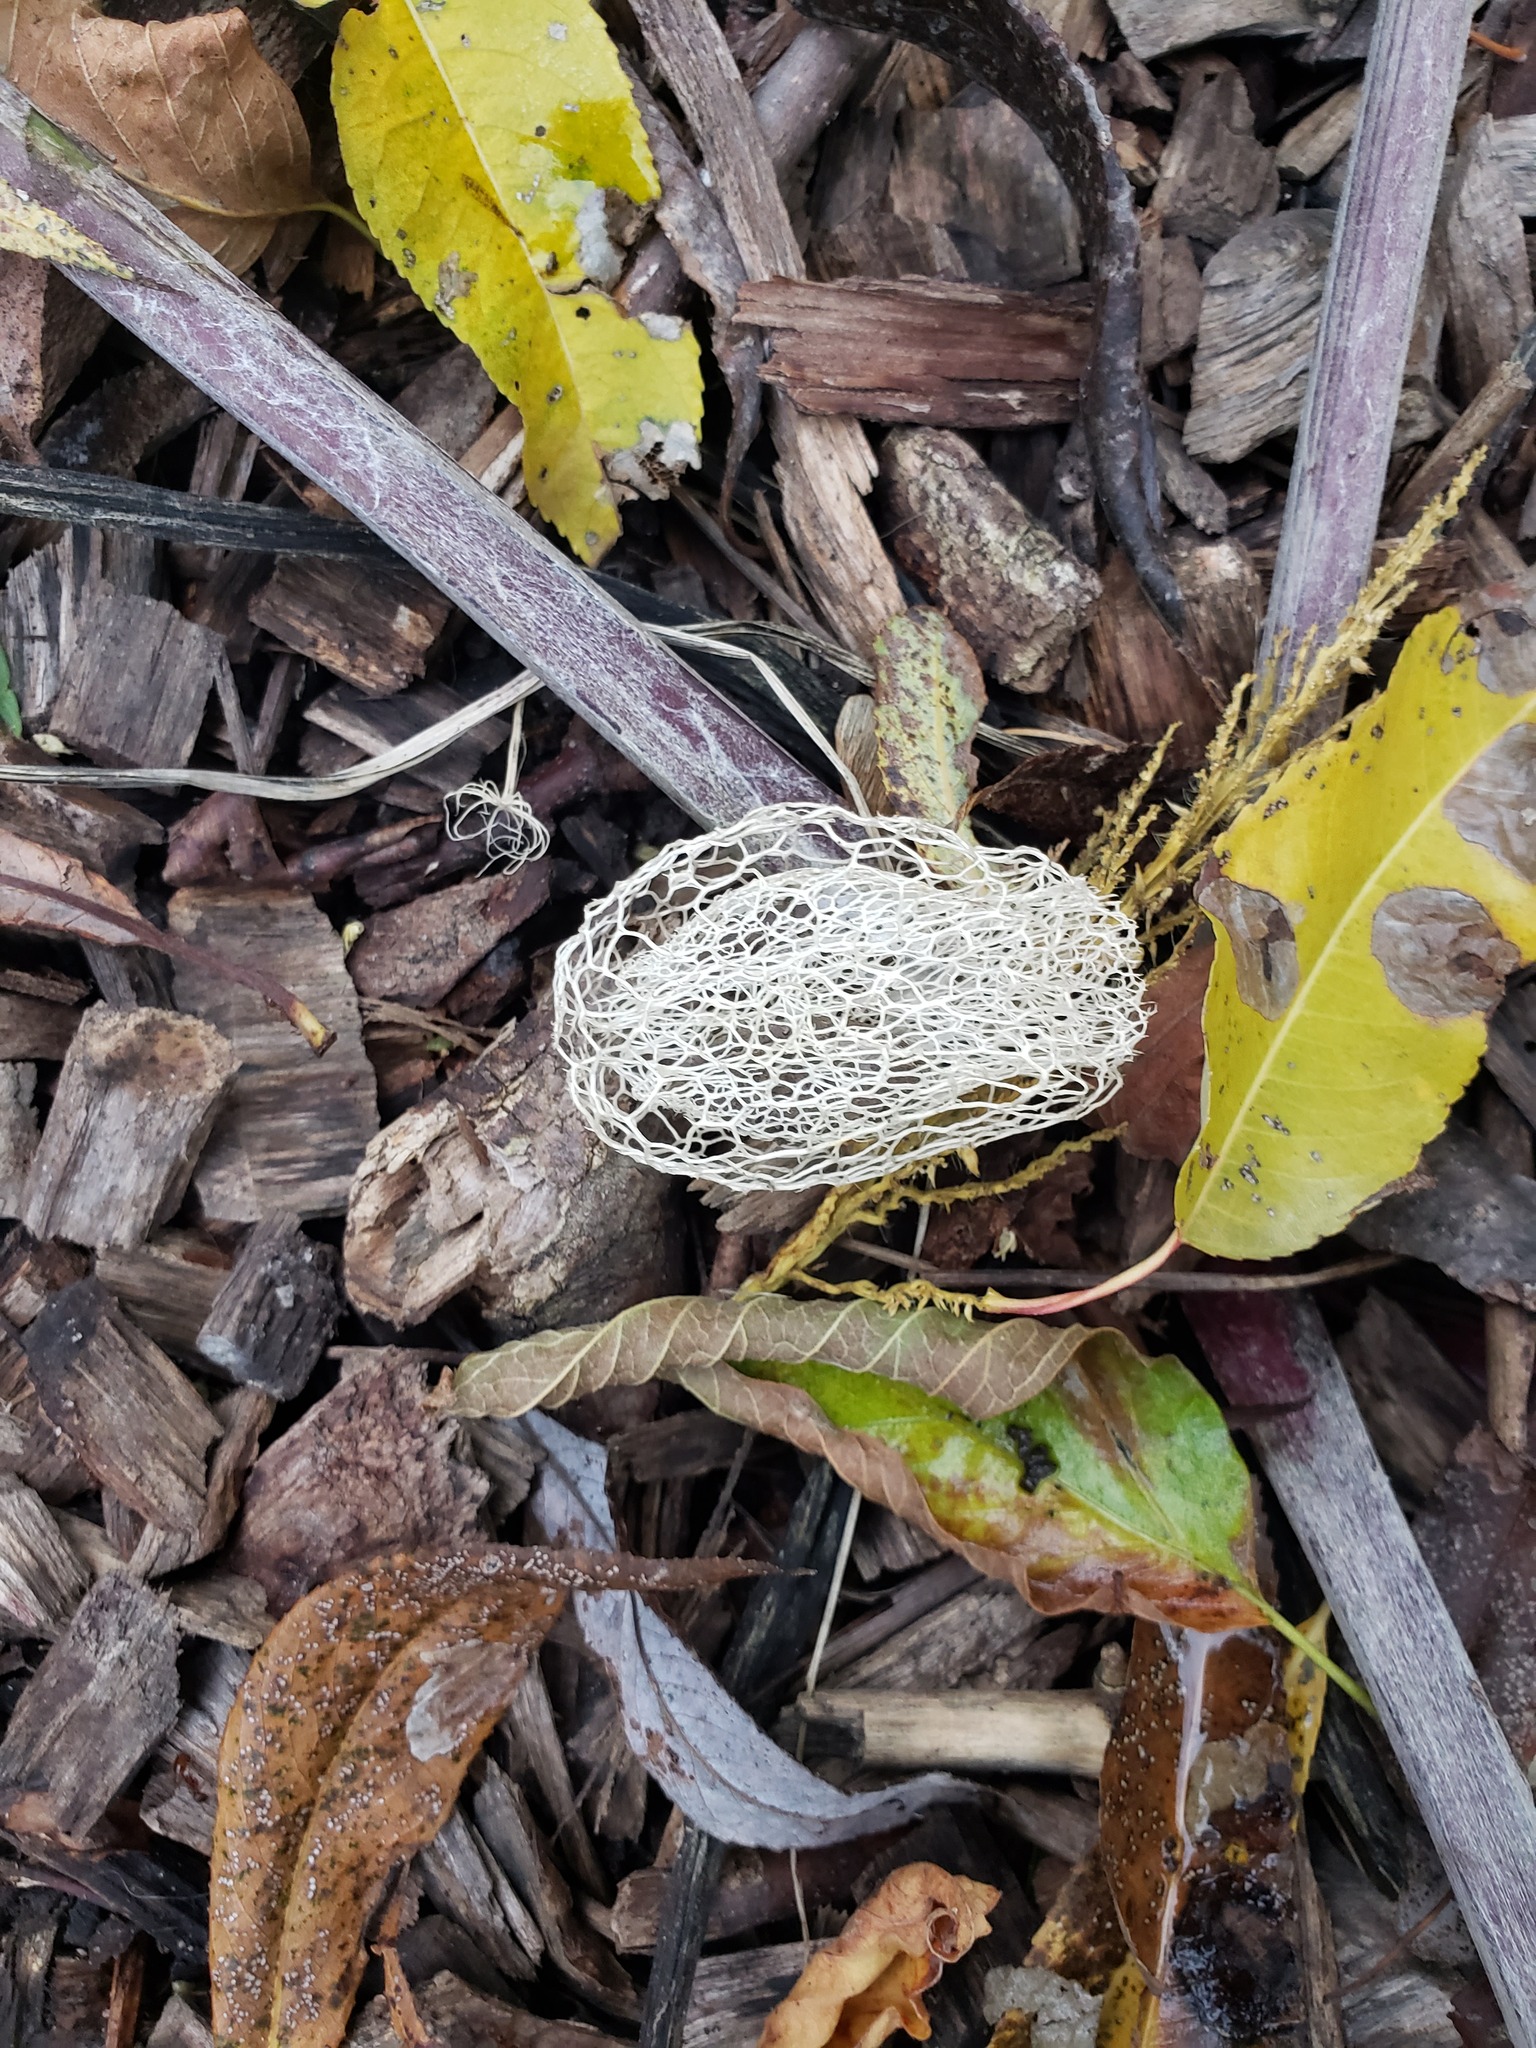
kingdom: Plantae
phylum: Tracheophyta
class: Magnoliopsida
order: Cucurbitales
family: Cucurbitaceae
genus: Echinocystis
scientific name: Echinocystis lobata
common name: Wild cucumber
